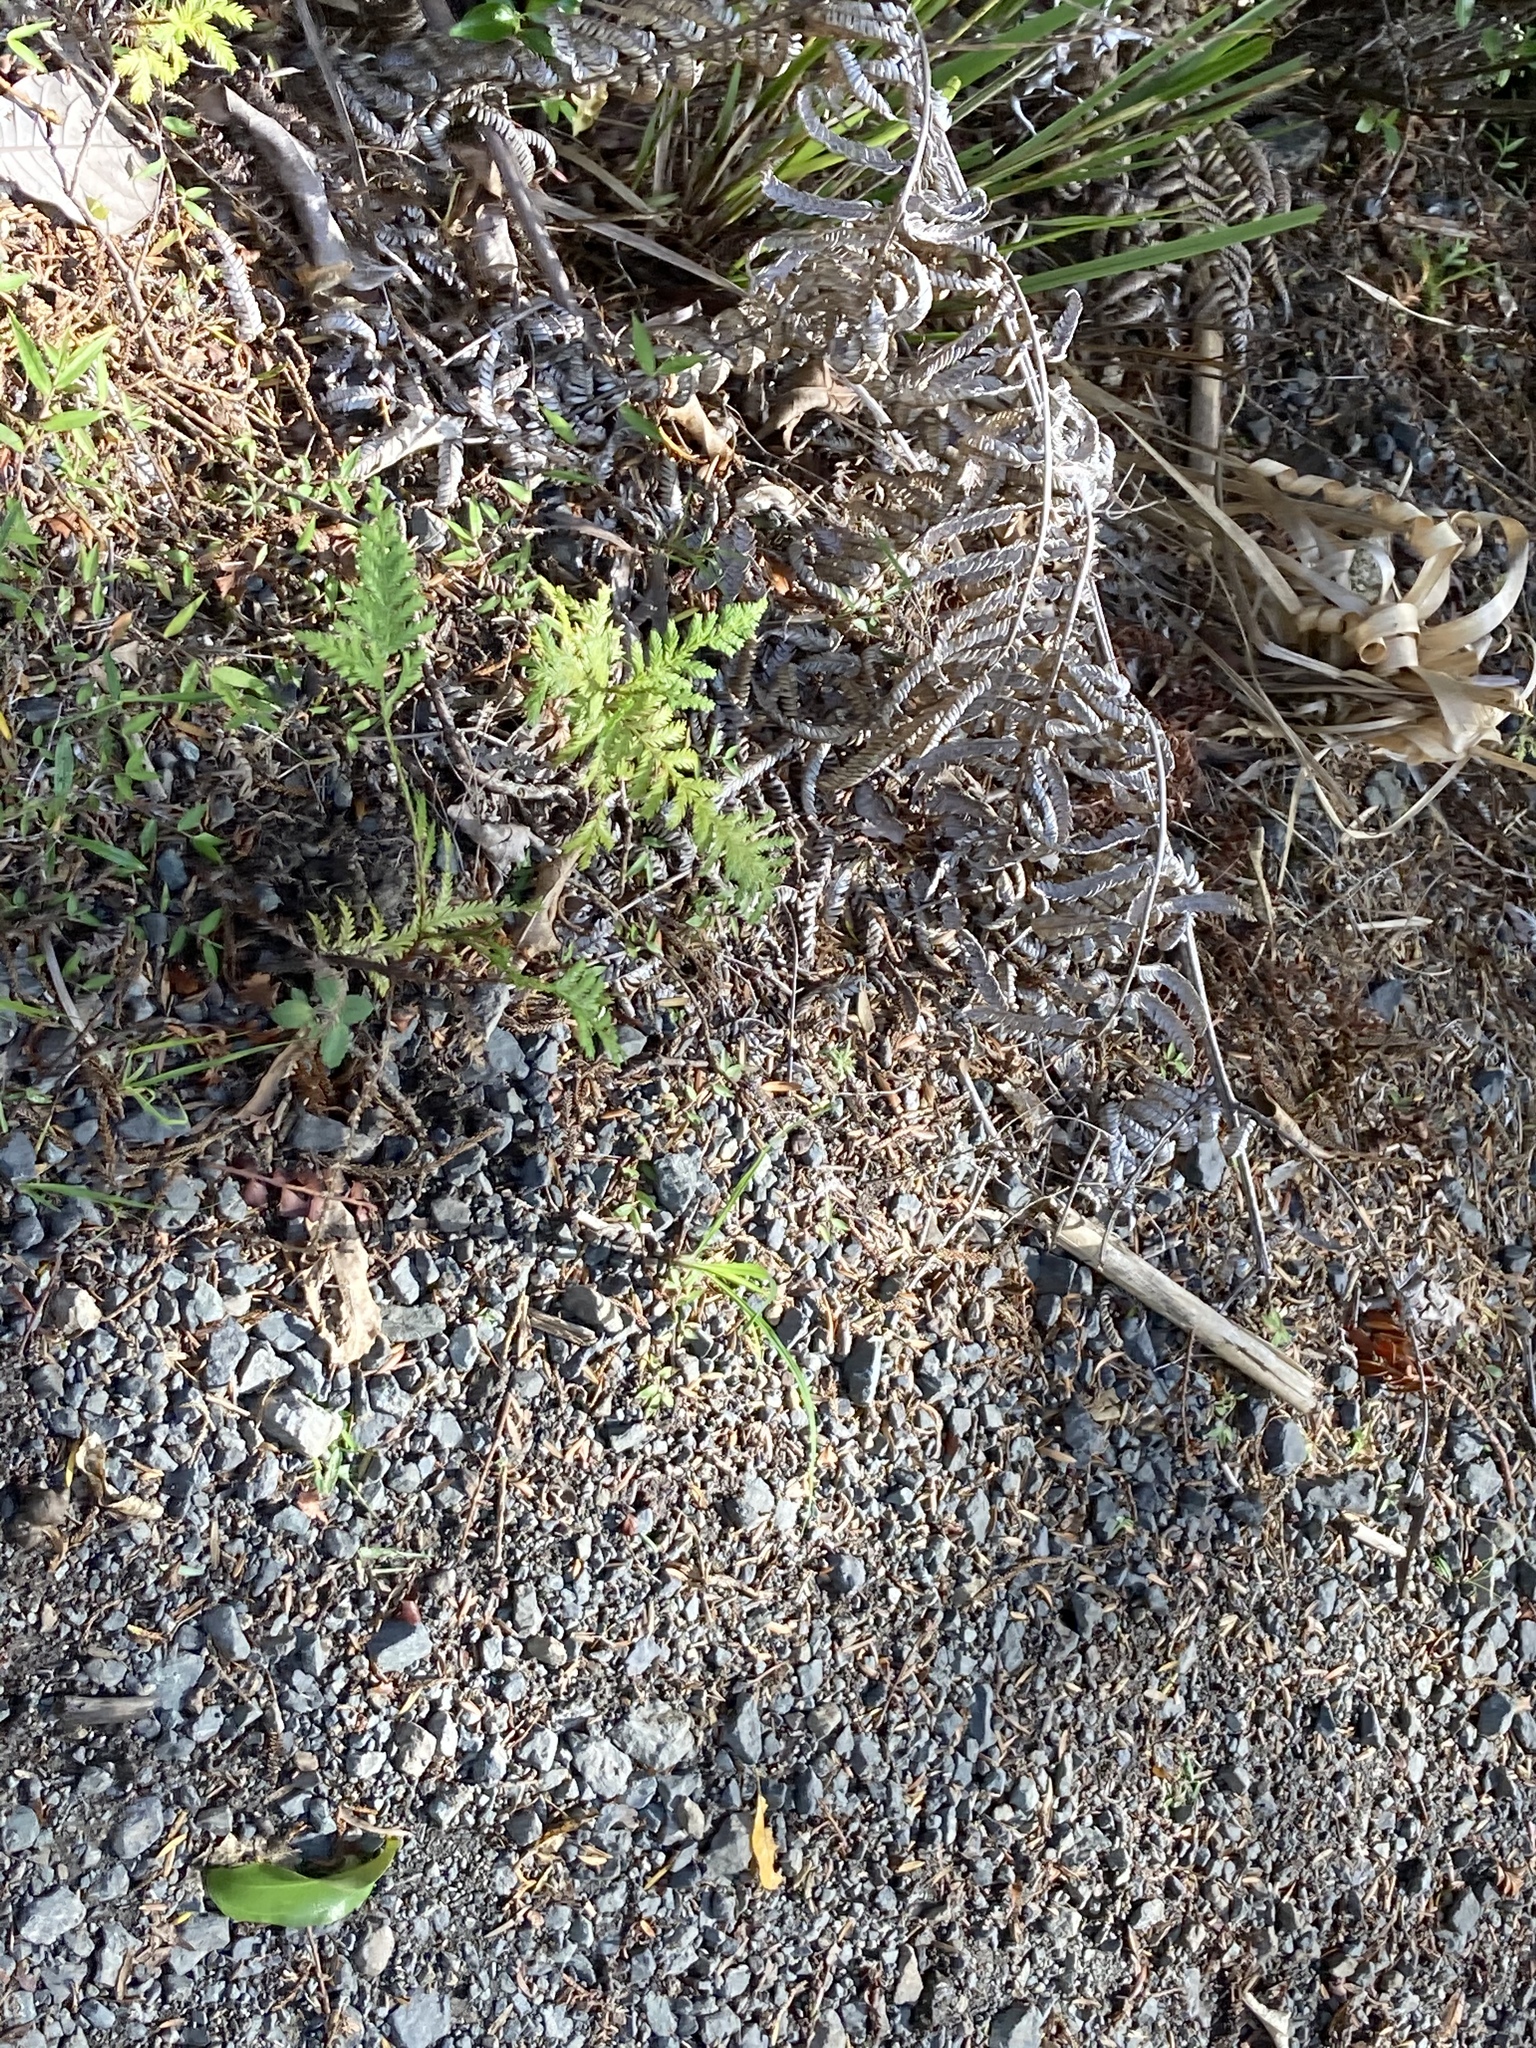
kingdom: Plantae
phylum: Tracheophyta
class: Pinopsida
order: Pinales
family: Cupressaceae
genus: Libocedrus
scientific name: Libocedrus plumosa
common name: New zealand cedar
